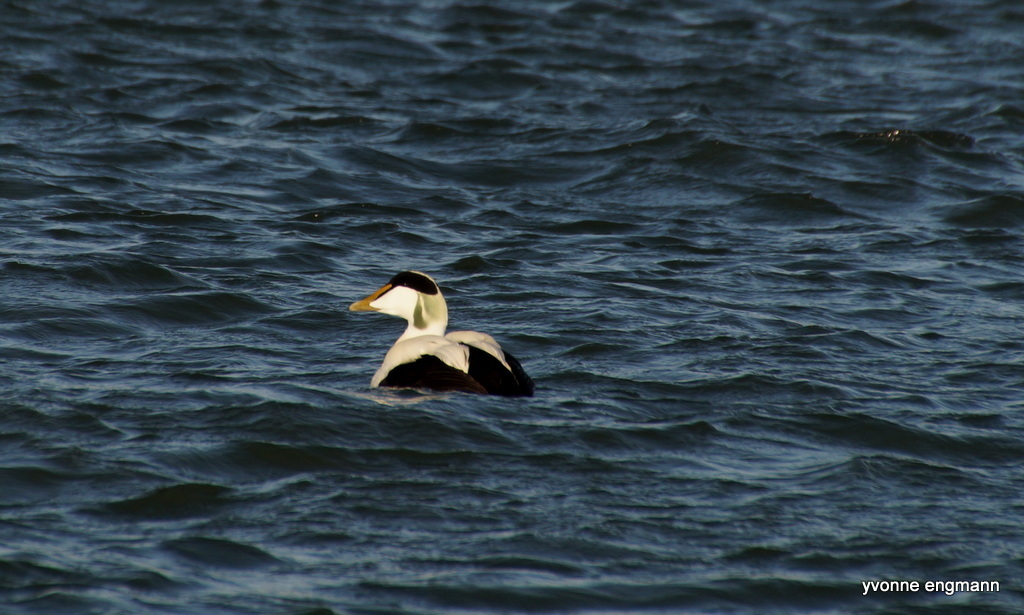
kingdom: Animalia
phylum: Chordata
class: Aves
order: Anseriformes
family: Anatidae
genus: Somateria
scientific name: Somateria mollissima
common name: Common eider
